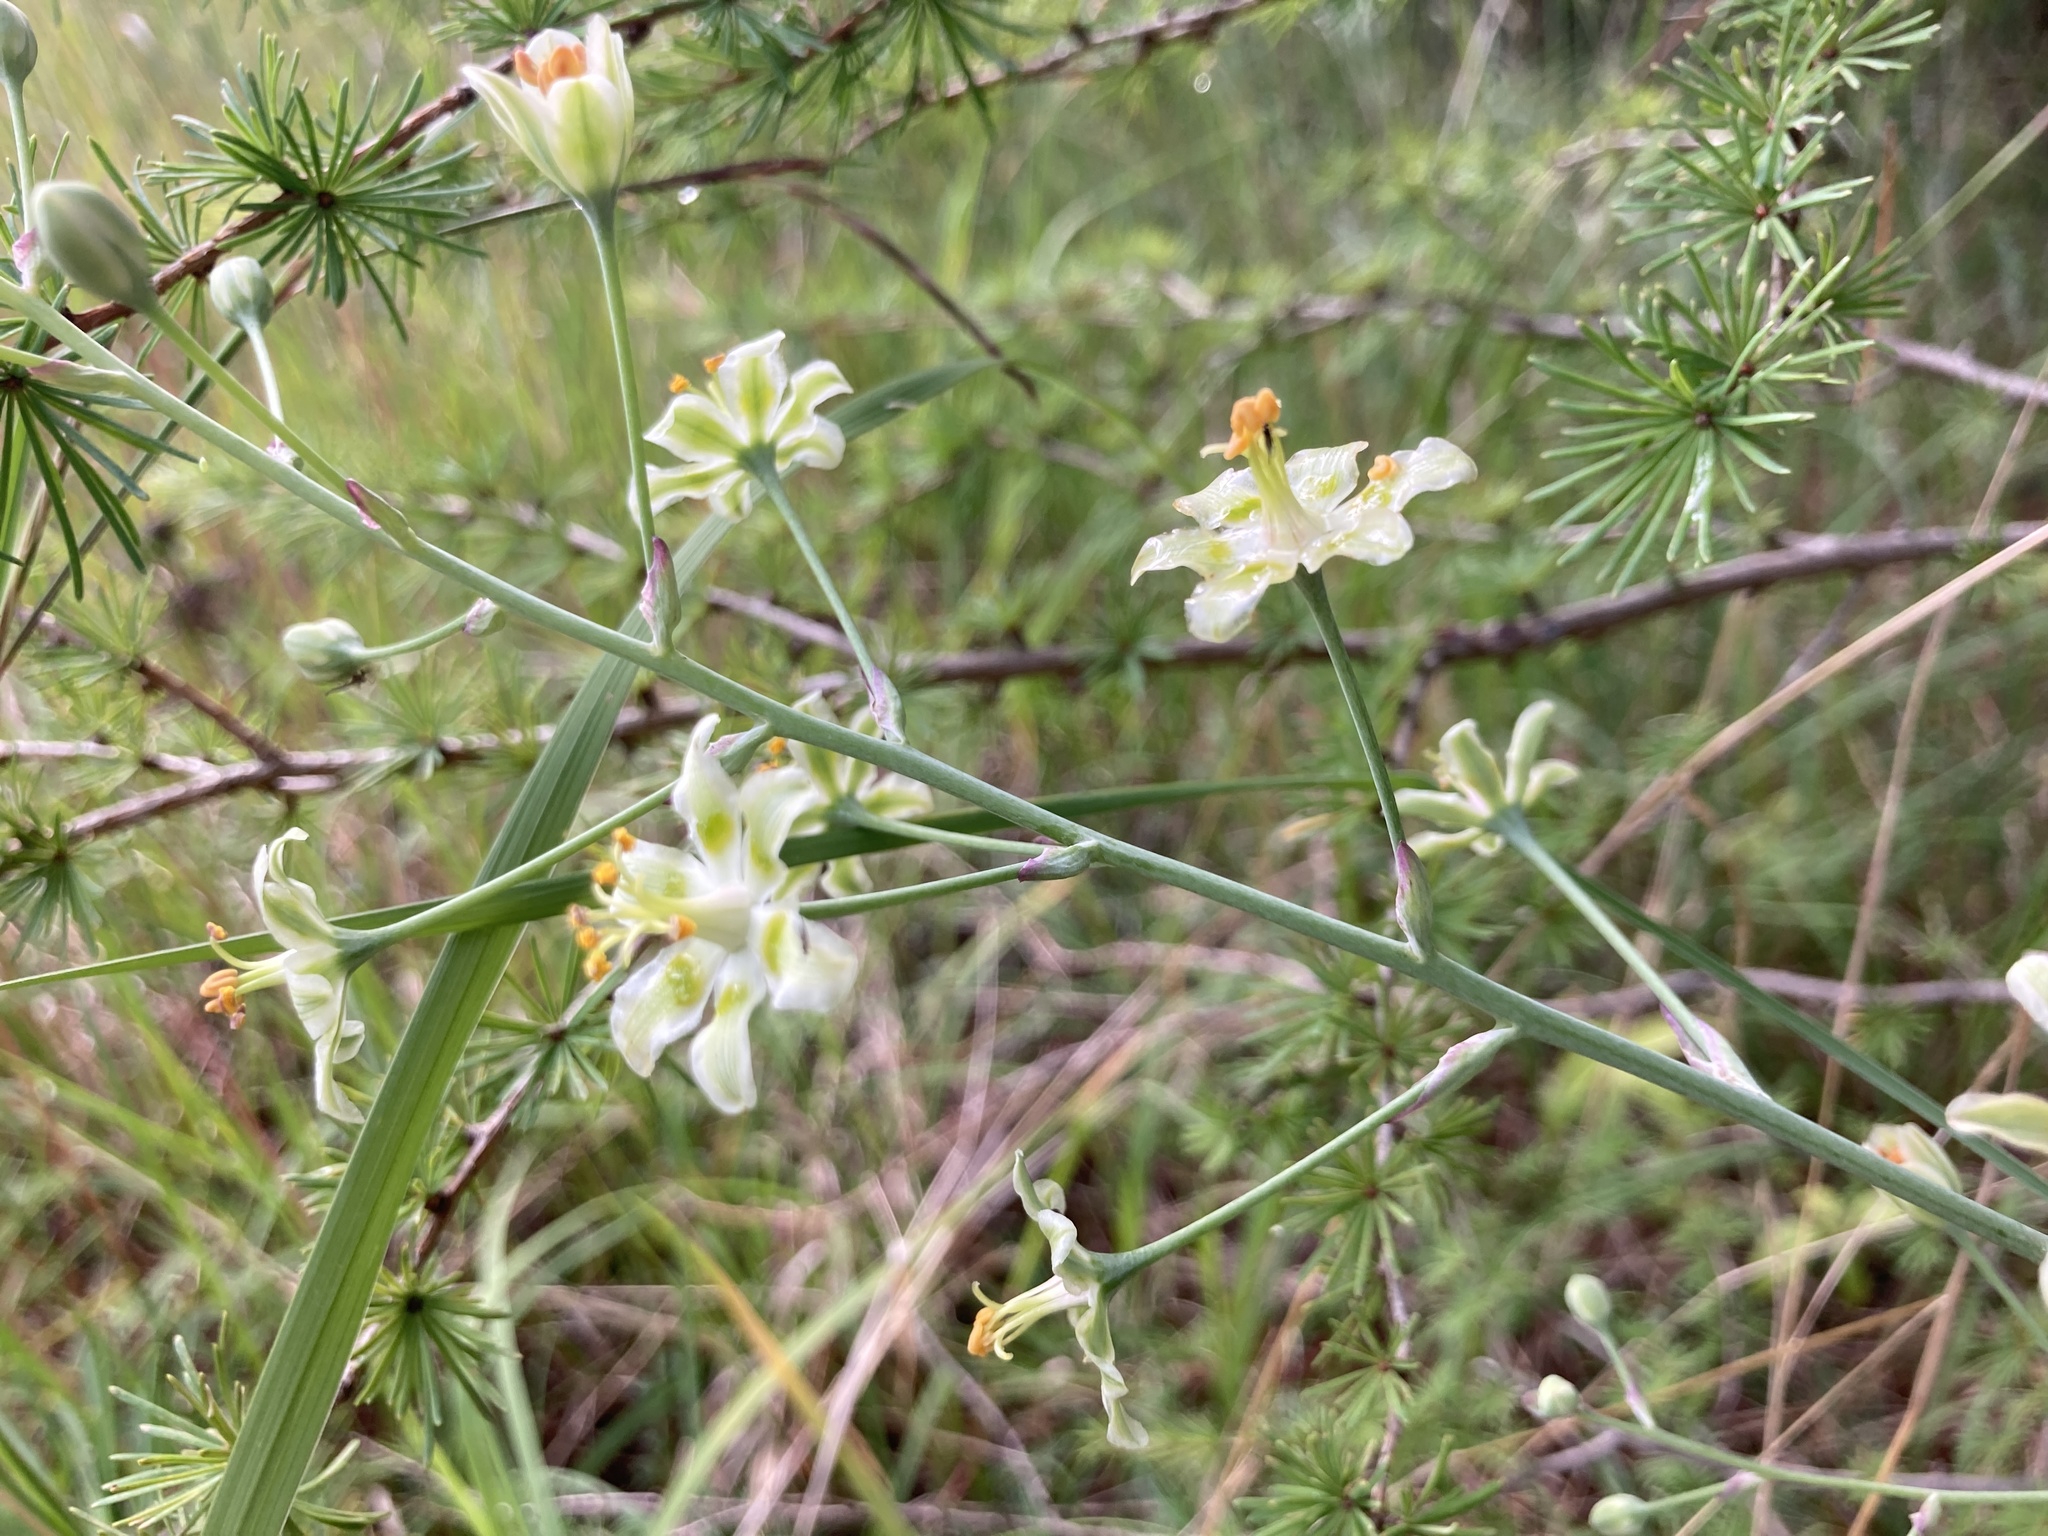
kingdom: Plantae
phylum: Tracheophyta
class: Liliopsida
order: Liliales
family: Melanthiaceae
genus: Anticlea
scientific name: Anticlea elegans
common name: Mountain death camas
